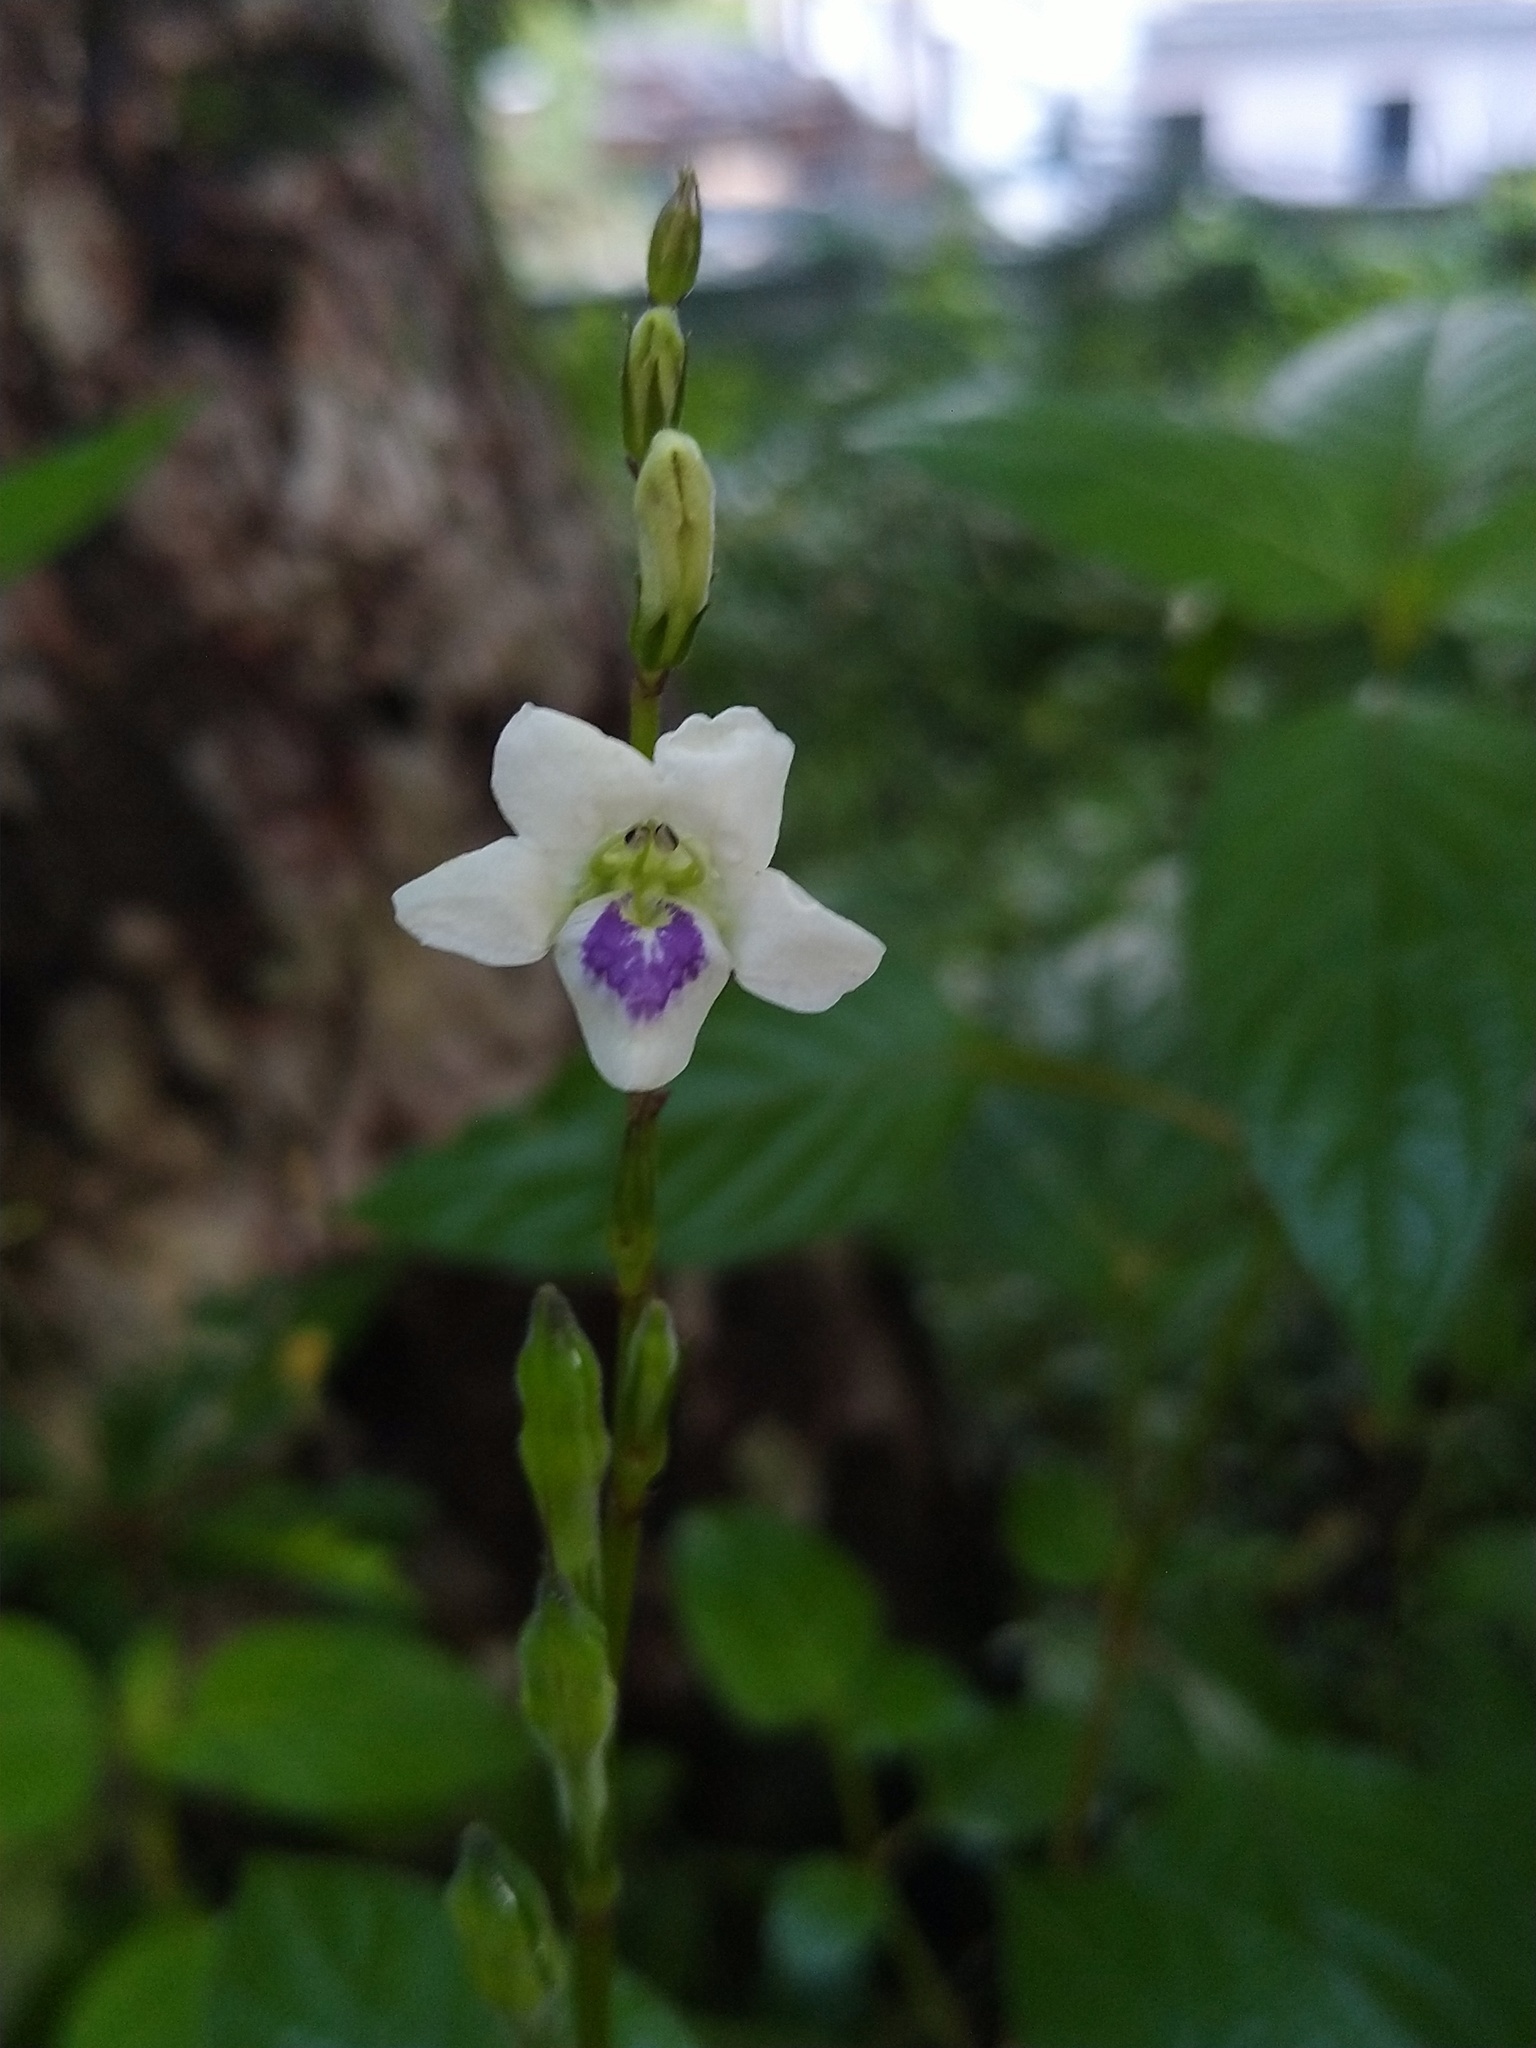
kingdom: Plantae
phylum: Tracheophyta
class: Magnoliopsida
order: Lamiales
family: Acanthaceae
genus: Asystasia
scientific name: Asystasia intrusa
